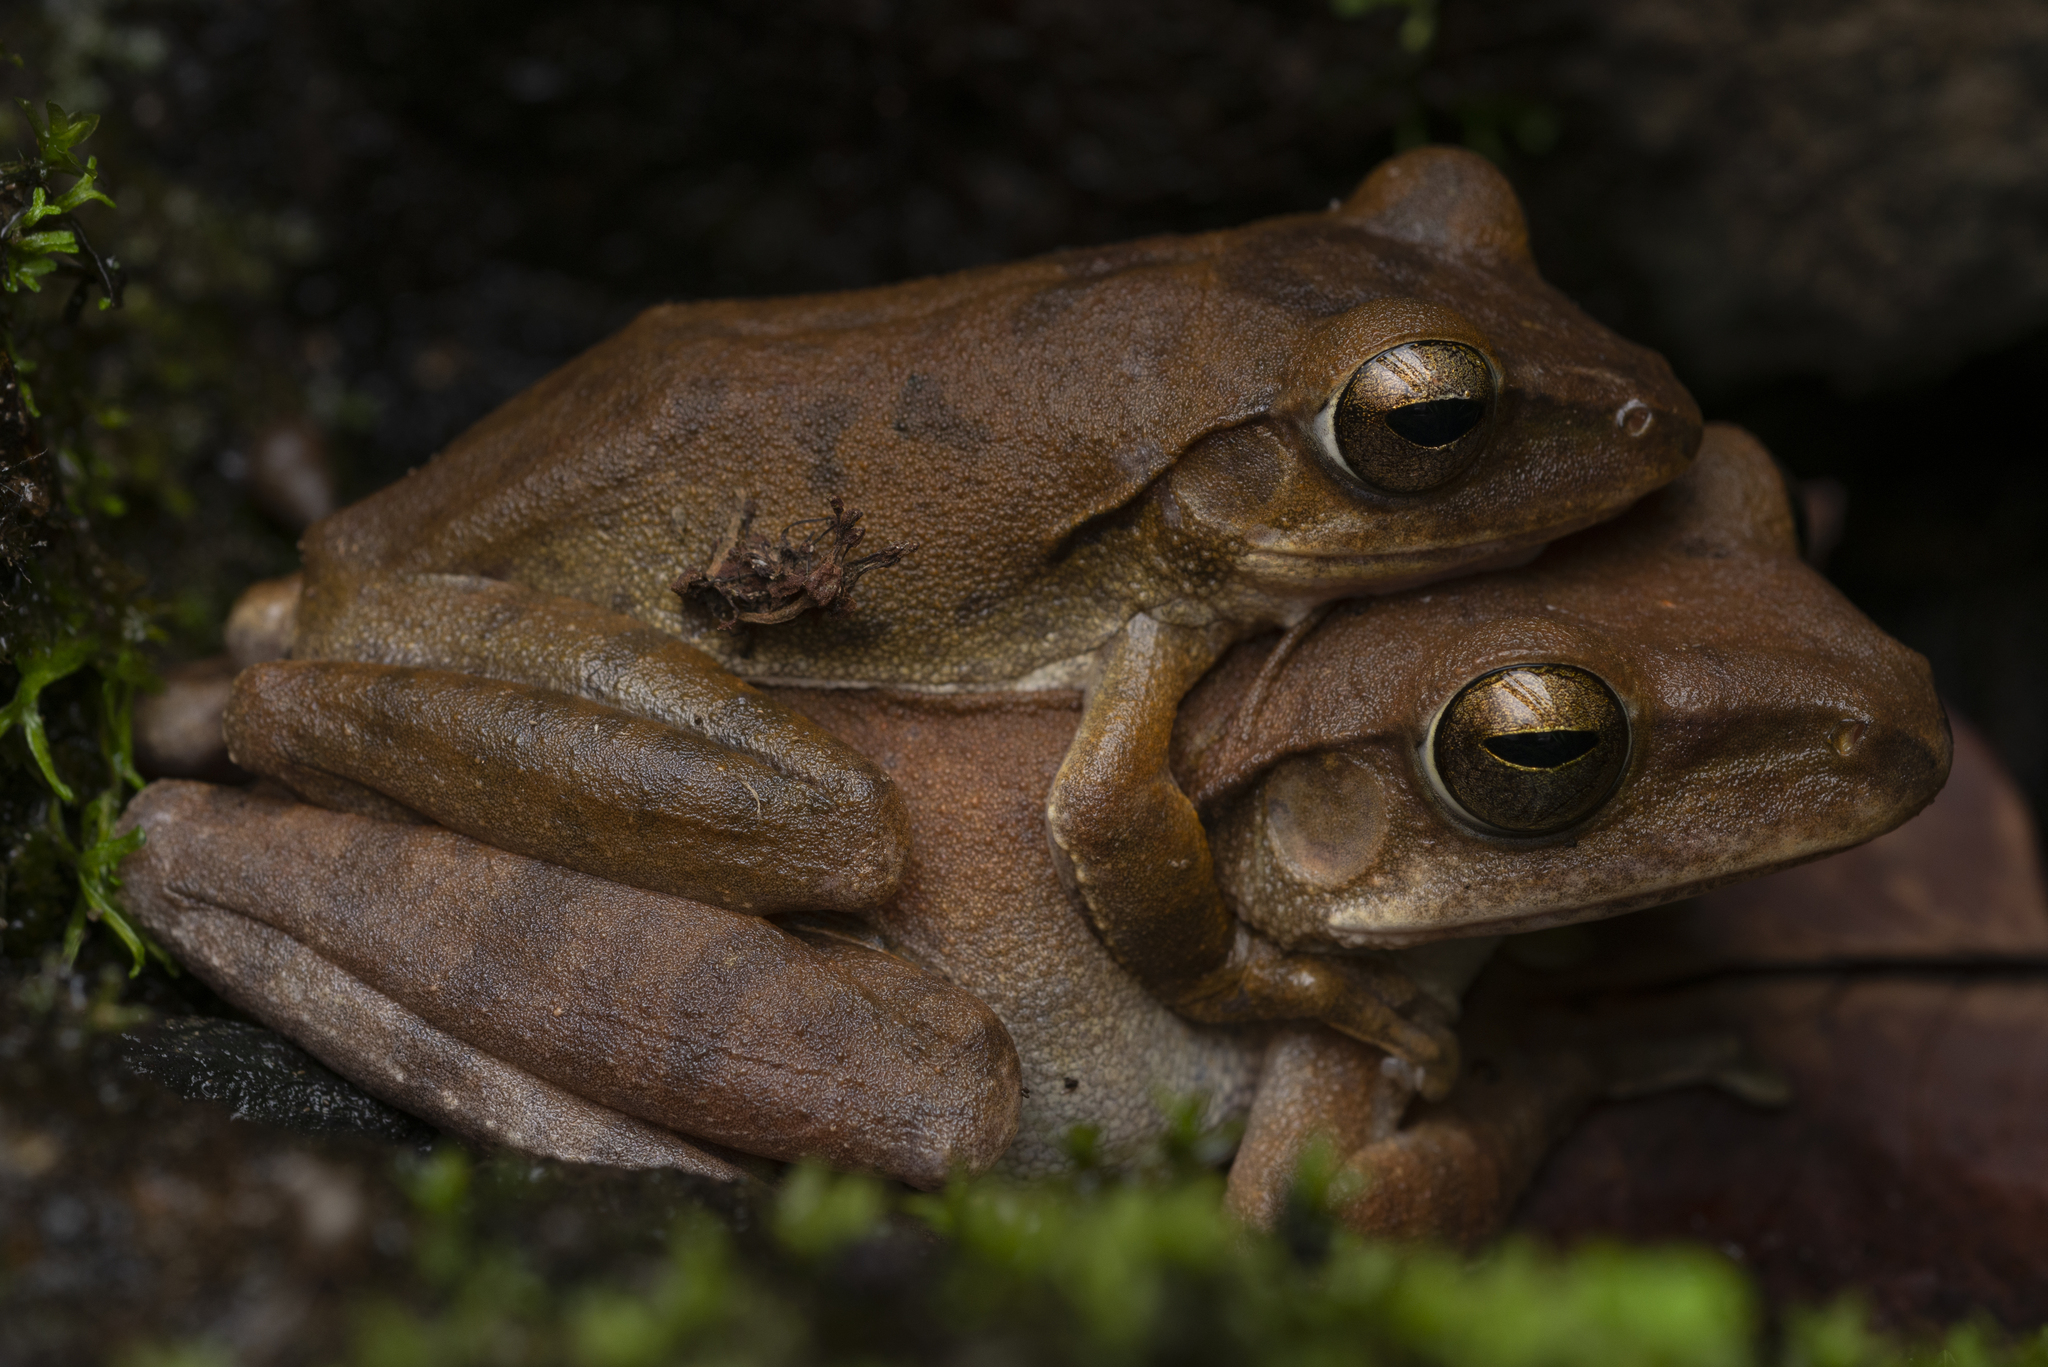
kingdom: Animalia
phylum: Chordata
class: Amphibia
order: Anura
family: Rhacophoridae
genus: Polypedates
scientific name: Polypedates megacephalus
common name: Hong kong whipping frog
